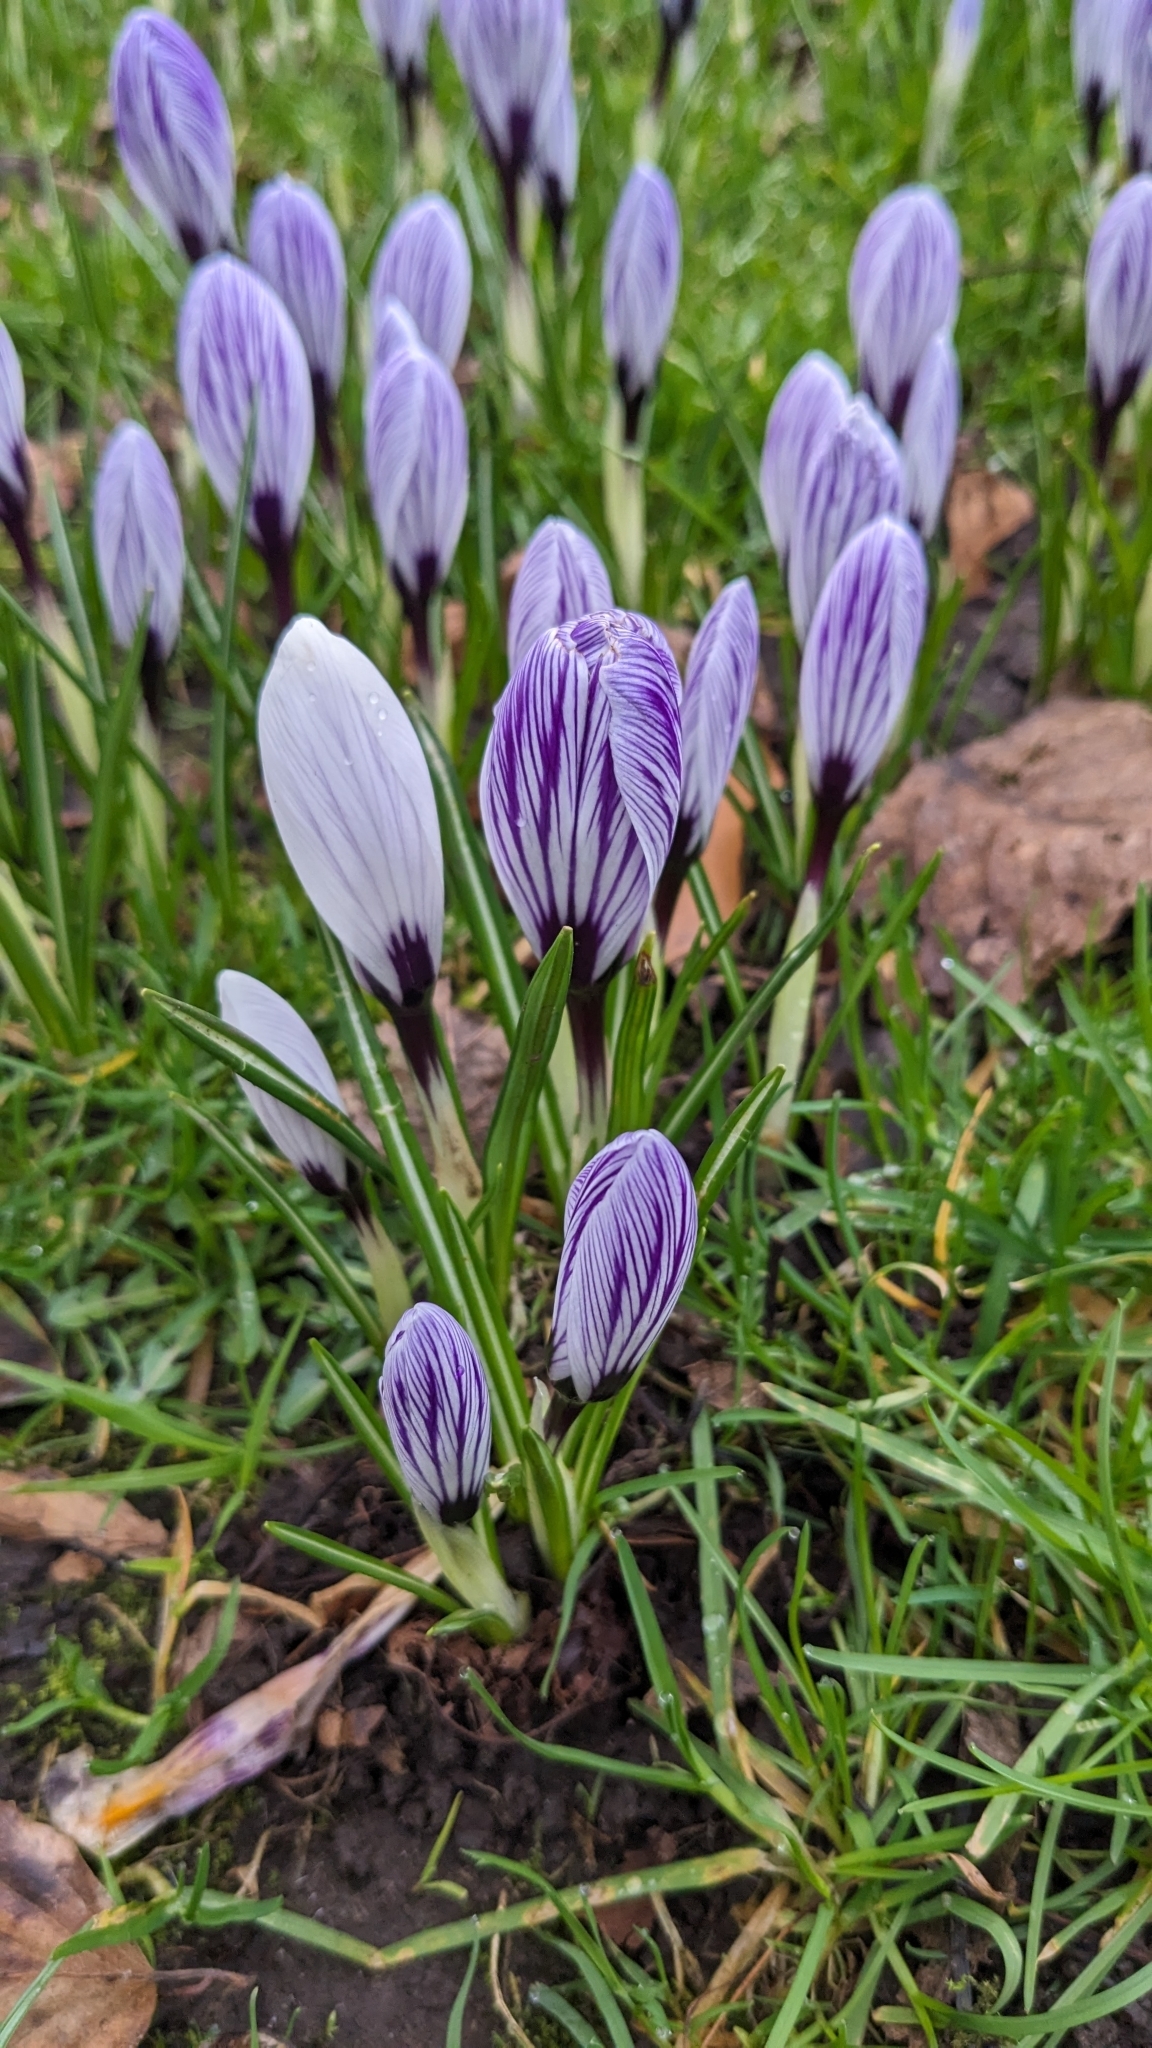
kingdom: Plantae
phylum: Tracheophyta
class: Liliopsida
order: Asparagales
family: Iridaceae
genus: Crocus
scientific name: Crocus neapolitanus
